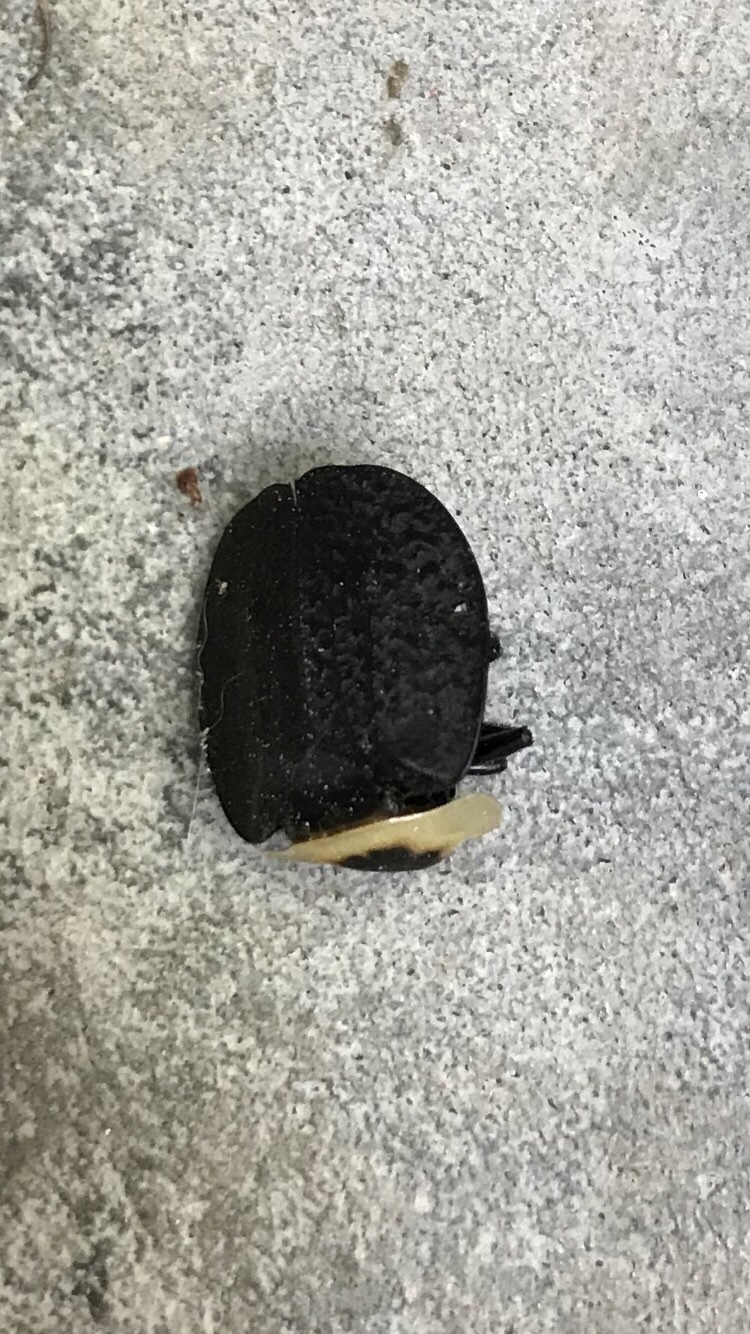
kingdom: Animalia
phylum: Arthropoda
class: Insecta
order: Coleoptera
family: Staphylinidae
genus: Necrophila
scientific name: Necrophila americana
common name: American carrion beetle
